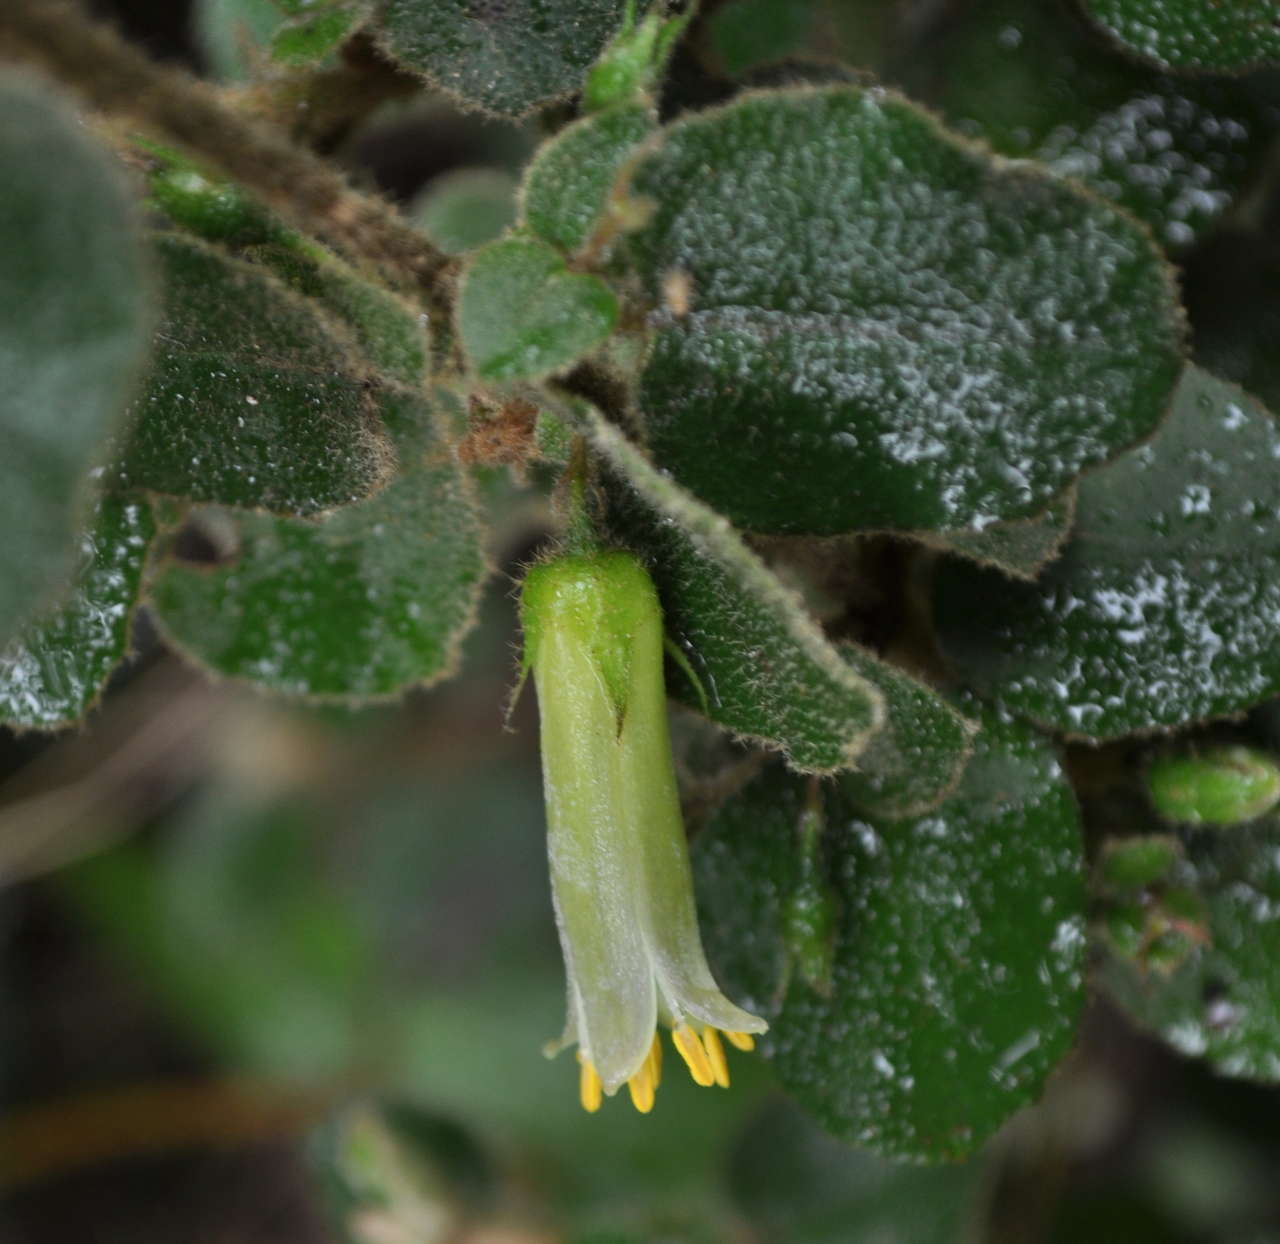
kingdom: Plantae
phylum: Tracheophyta
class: Magnoliopsida
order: Sapindales
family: Rutaceae
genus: Correa
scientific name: Correa aemula
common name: Hairy correa
